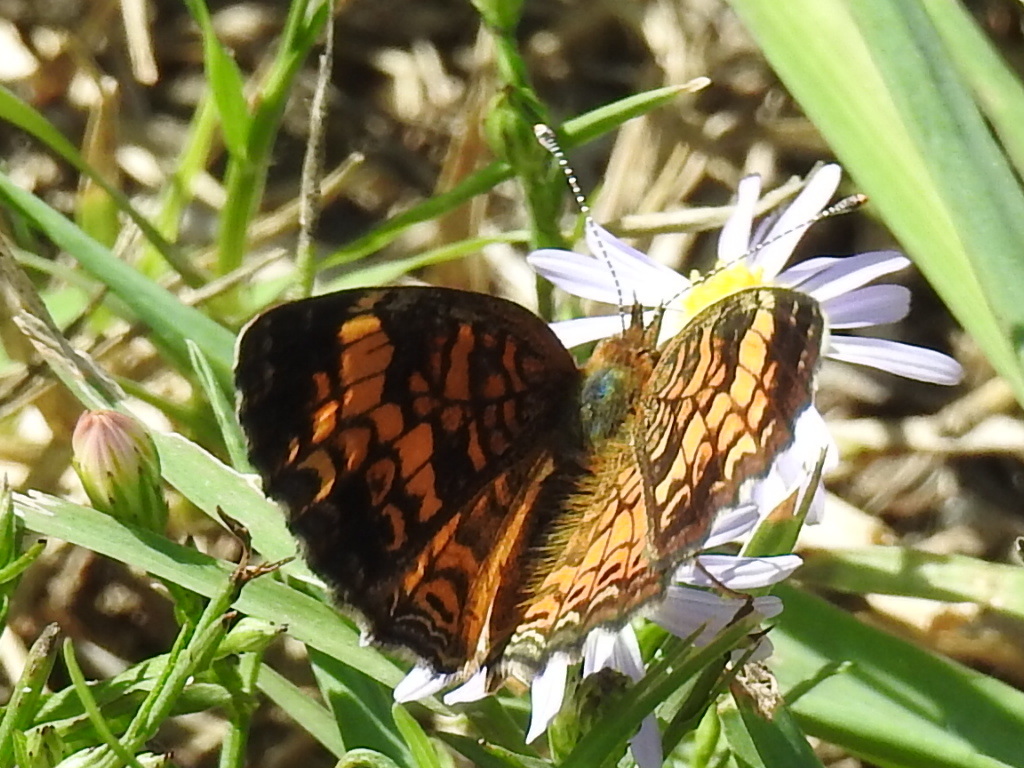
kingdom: Animalia
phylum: Arthropoda
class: Insecta
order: Lepidoptera
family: Nymphalidae
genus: Phyciodes
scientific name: Phyciodes tharos
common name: Pearl crescent
